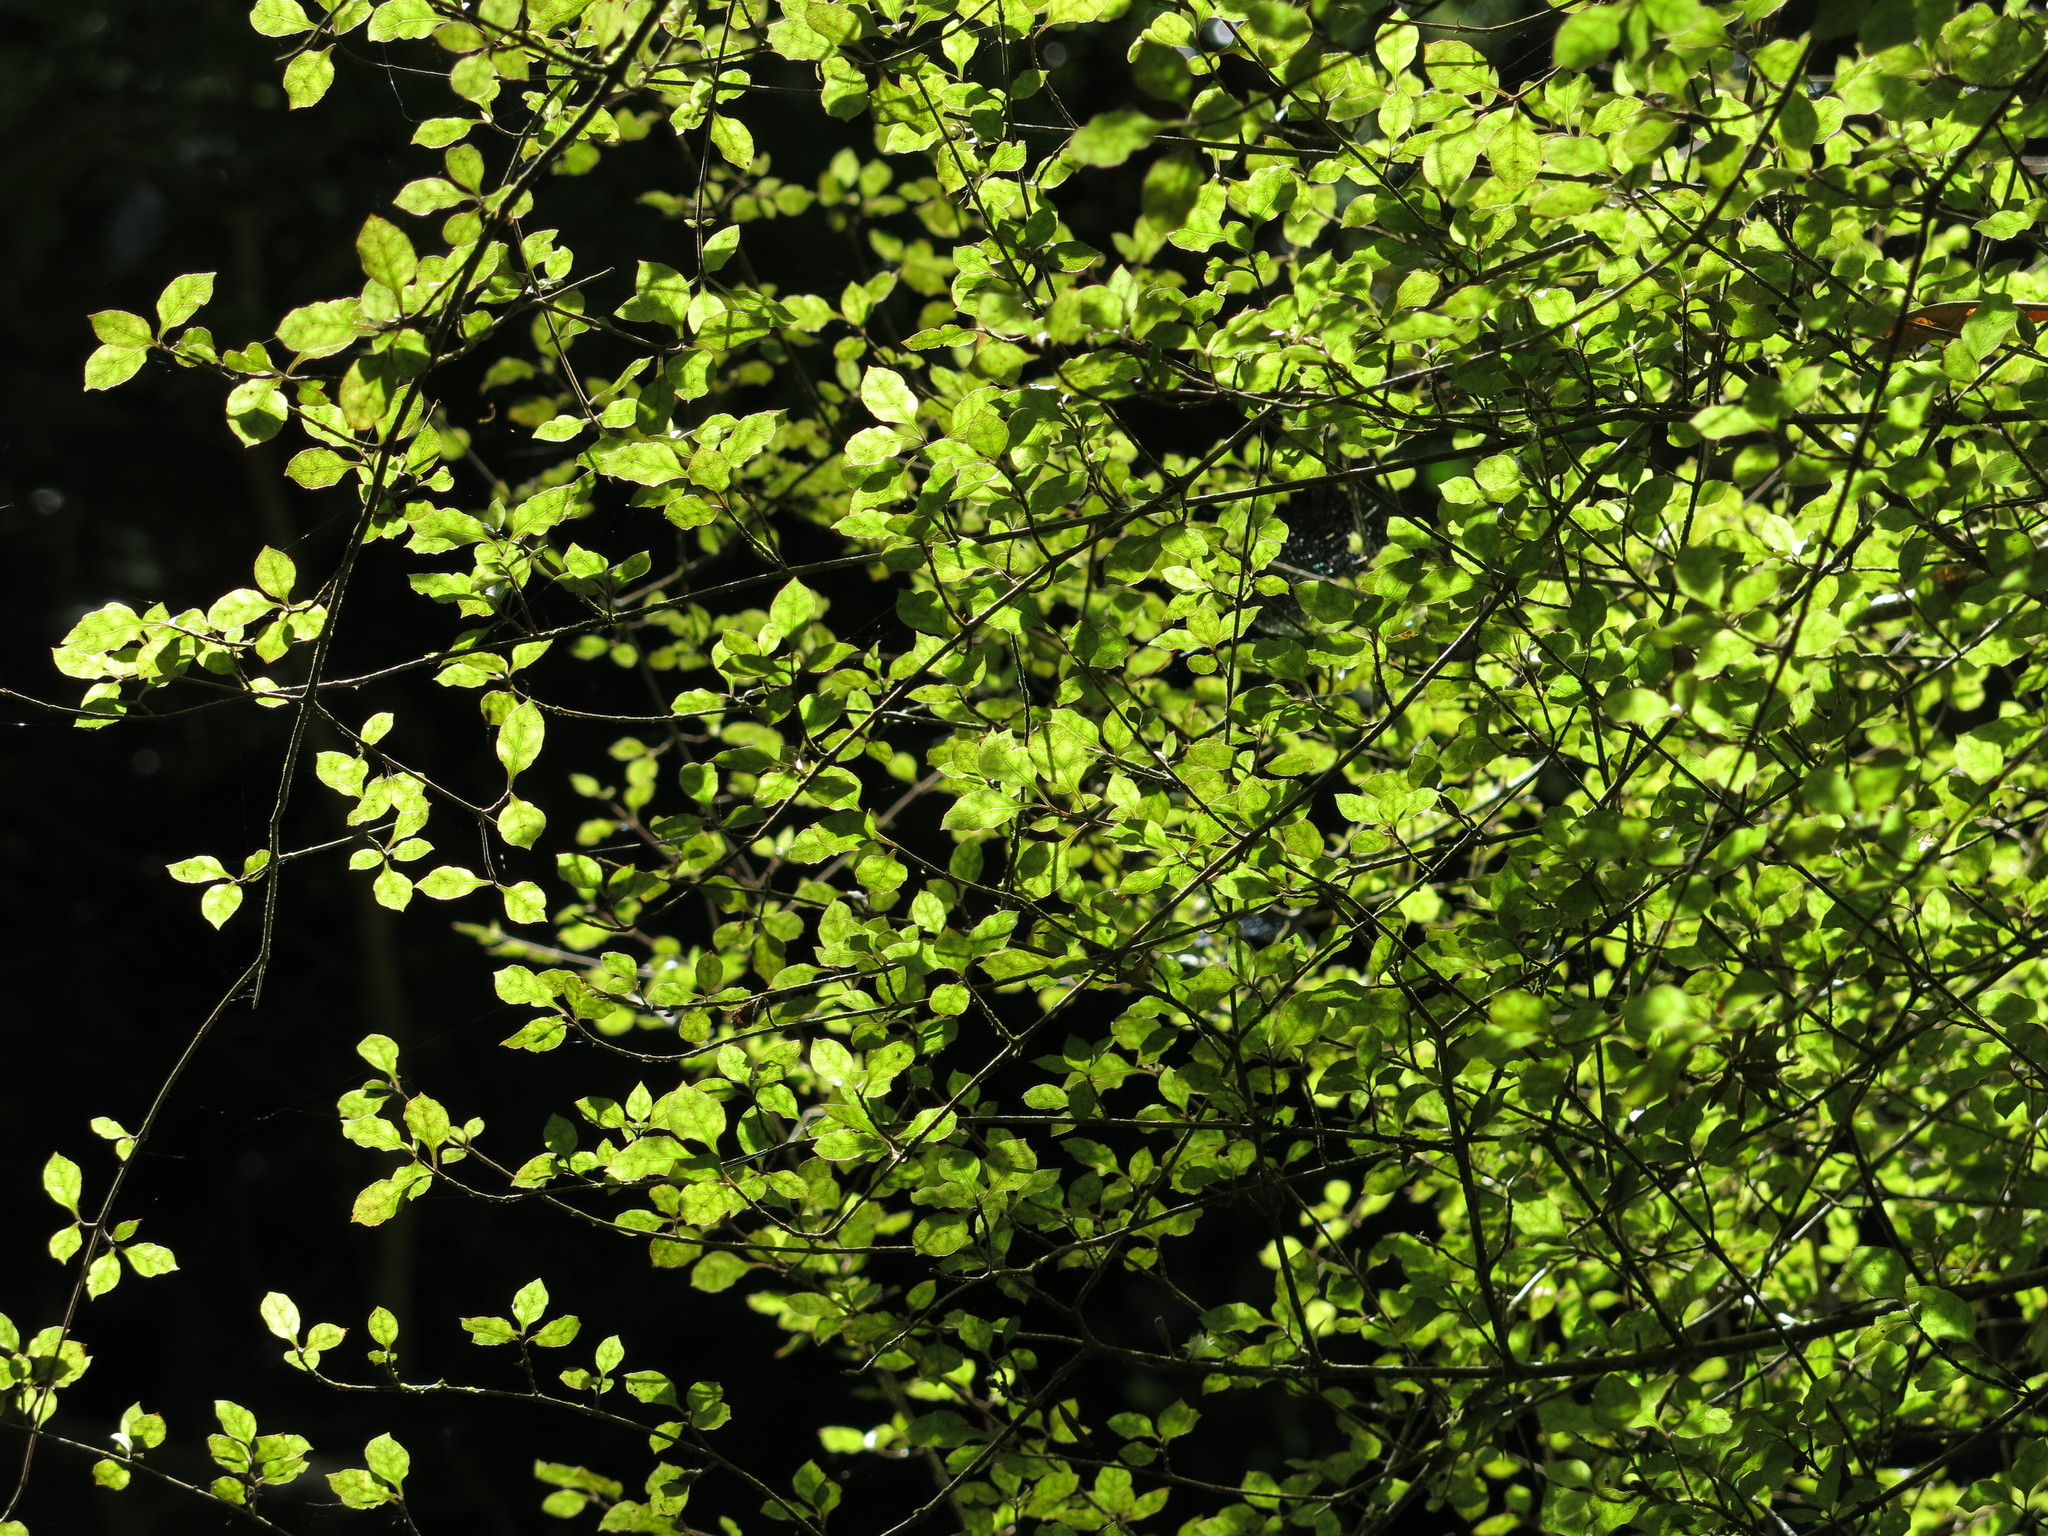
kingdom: Plantae
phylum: Tracheophyta
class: Magnoliopsida
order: Gentianales
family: Rubiaceae
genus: Coprosma
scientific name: Coprosma areolata
